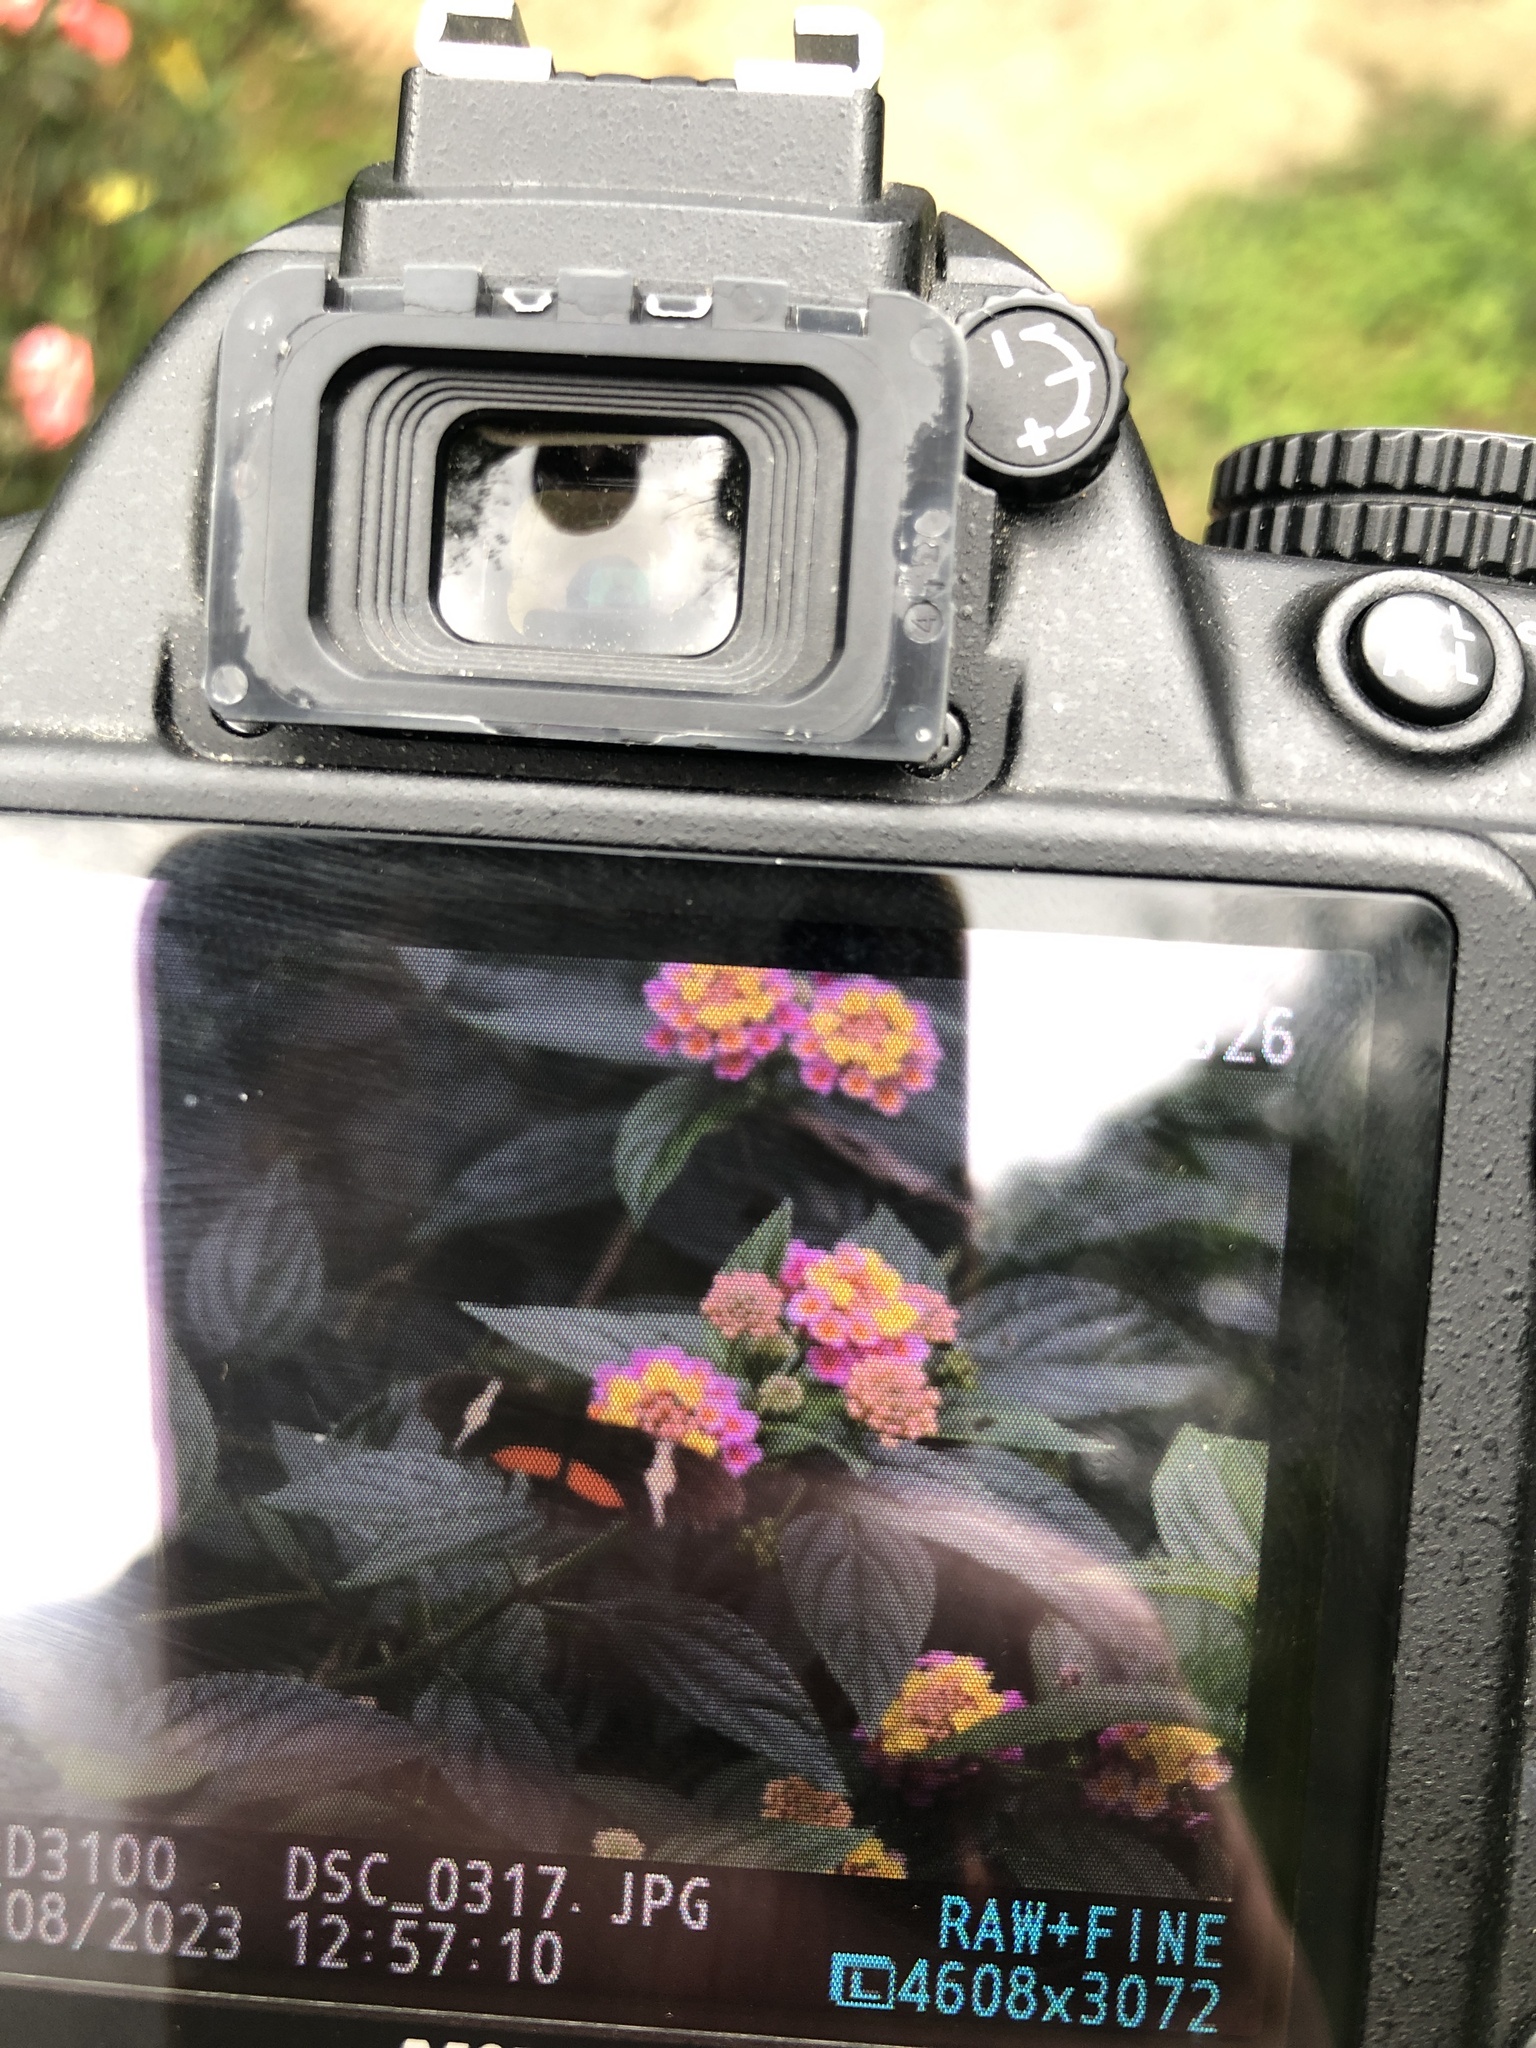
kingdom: Animalia
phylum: Arthropoda
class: Insecta
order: Lepidoptera
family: Nymphalidae
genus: Heliconius
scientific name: Heliconius clysonymus
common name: Clysonymus longwing
